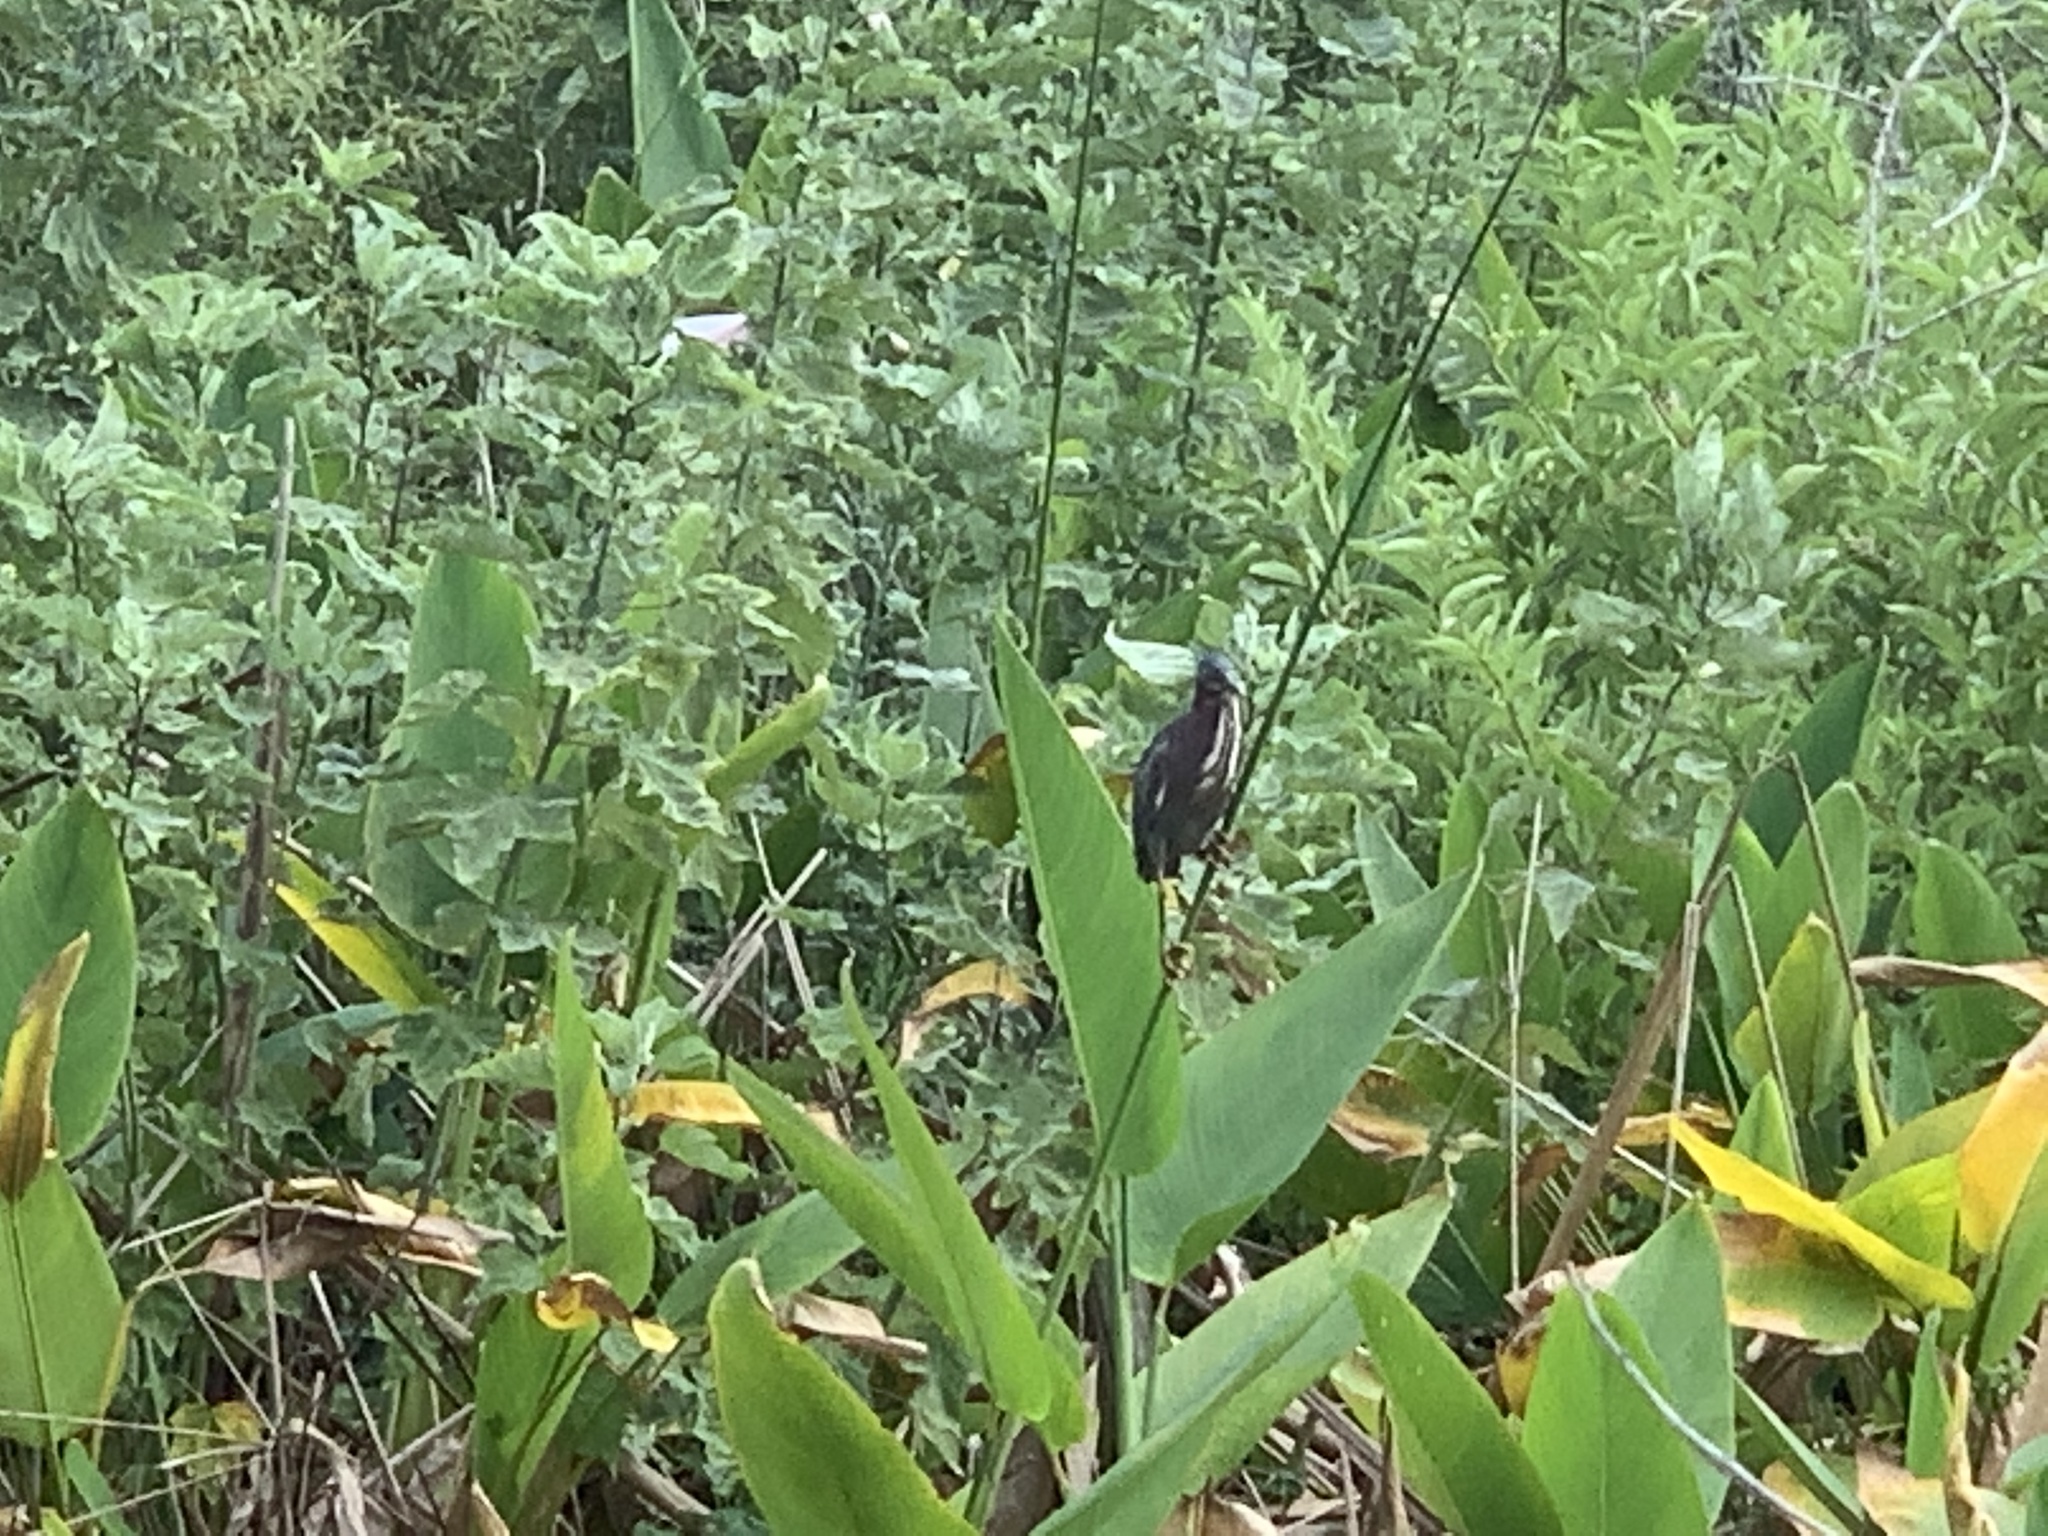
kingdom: Animalia
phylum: Chordata
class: Aves
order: Pelecaniformes
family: Ardeidae
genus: Butorides
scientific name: Butorides virescens
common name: Green heron
